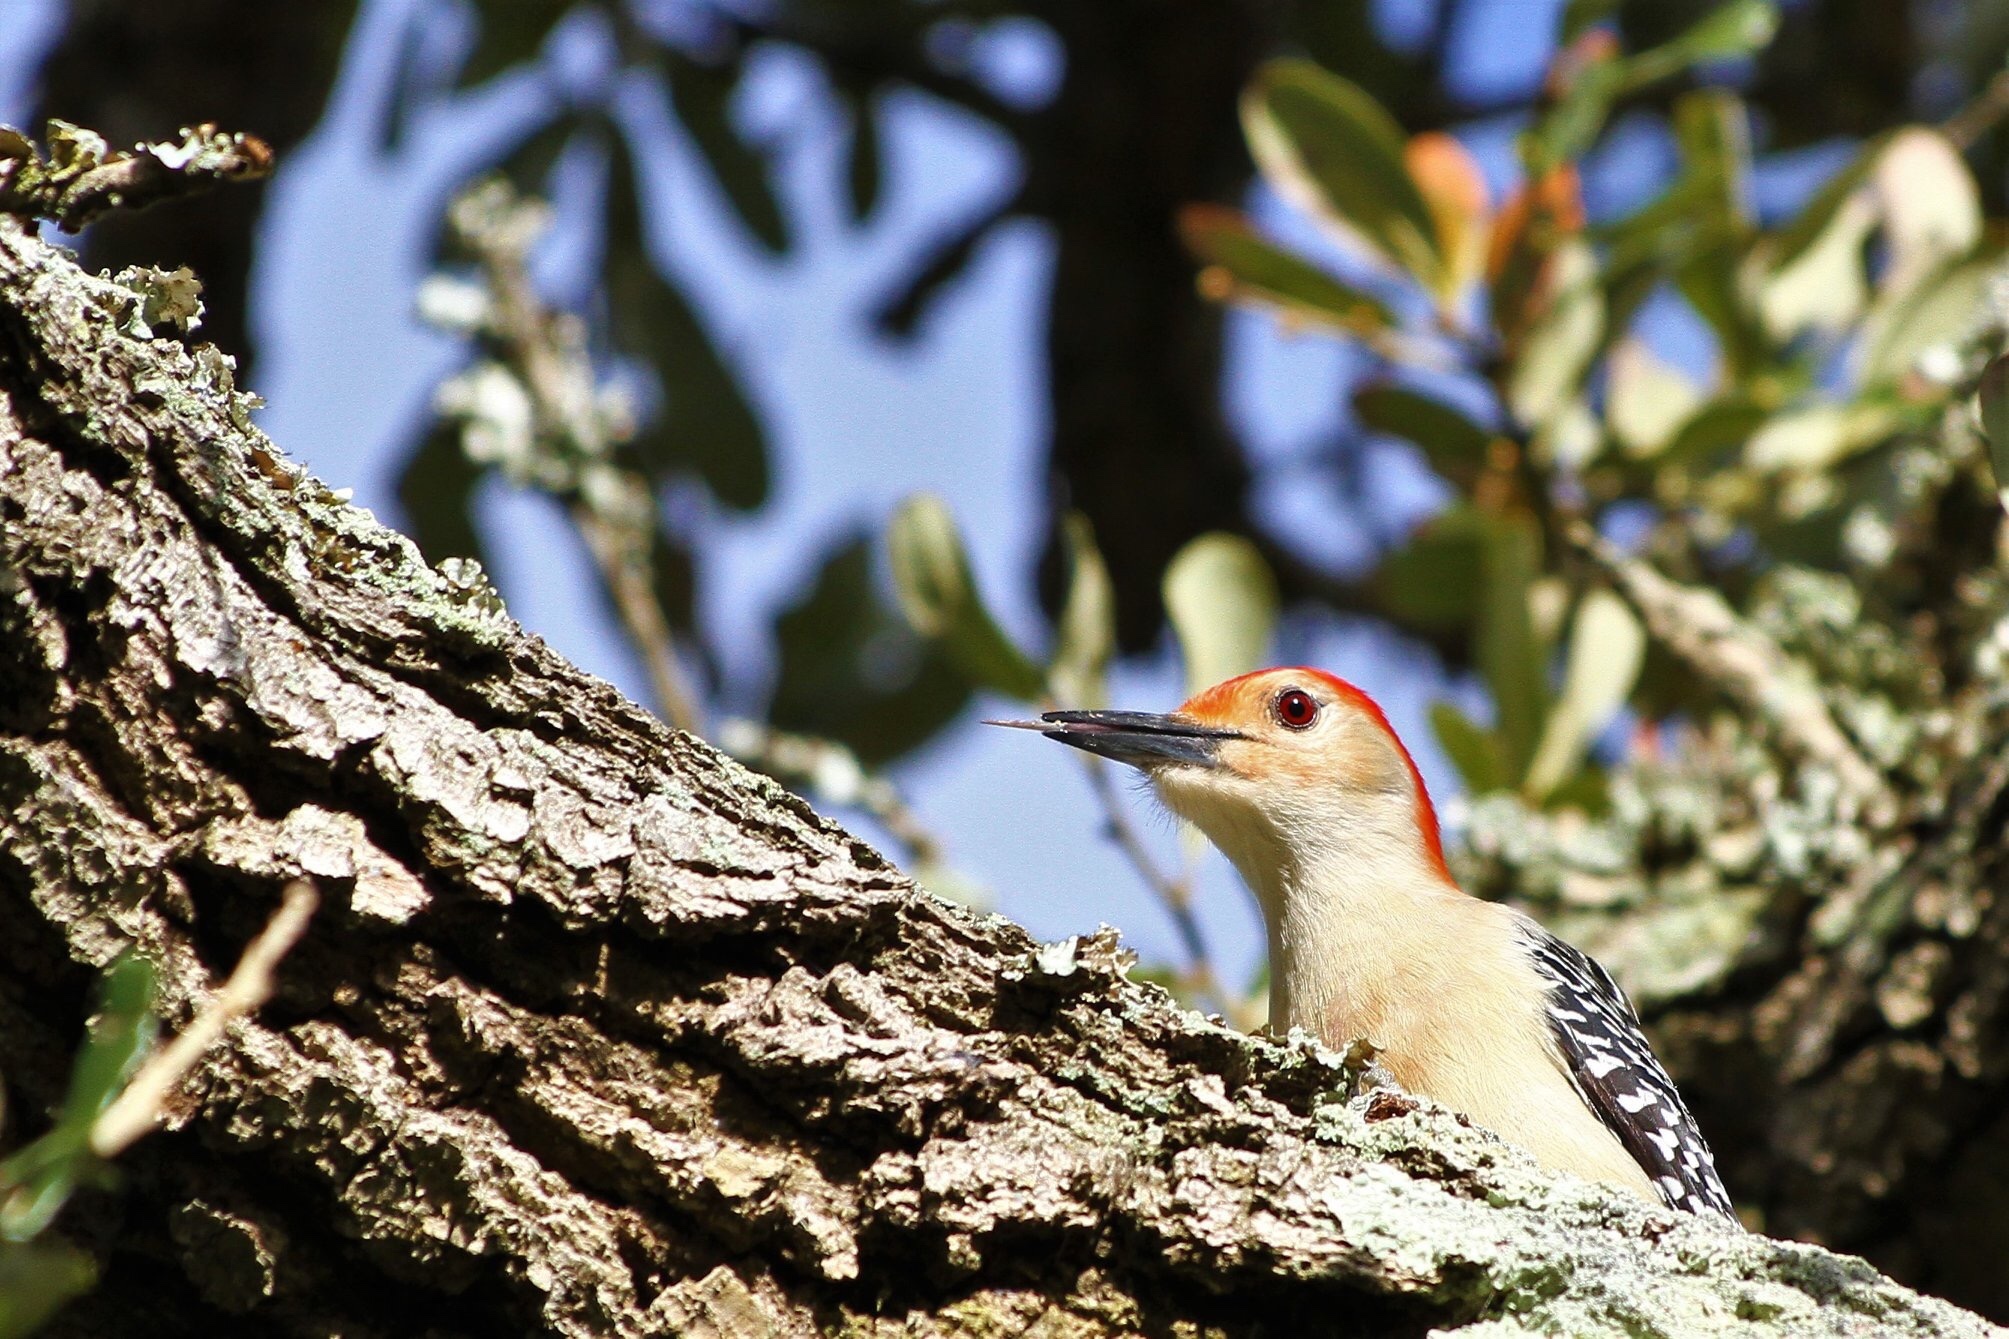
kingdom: Animalia
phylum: Chordata
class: Aves
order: Piciformes
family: Picidae
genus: Melanerpes
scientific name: Melanerpes carolinus
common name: Red-bellied woodpecker
